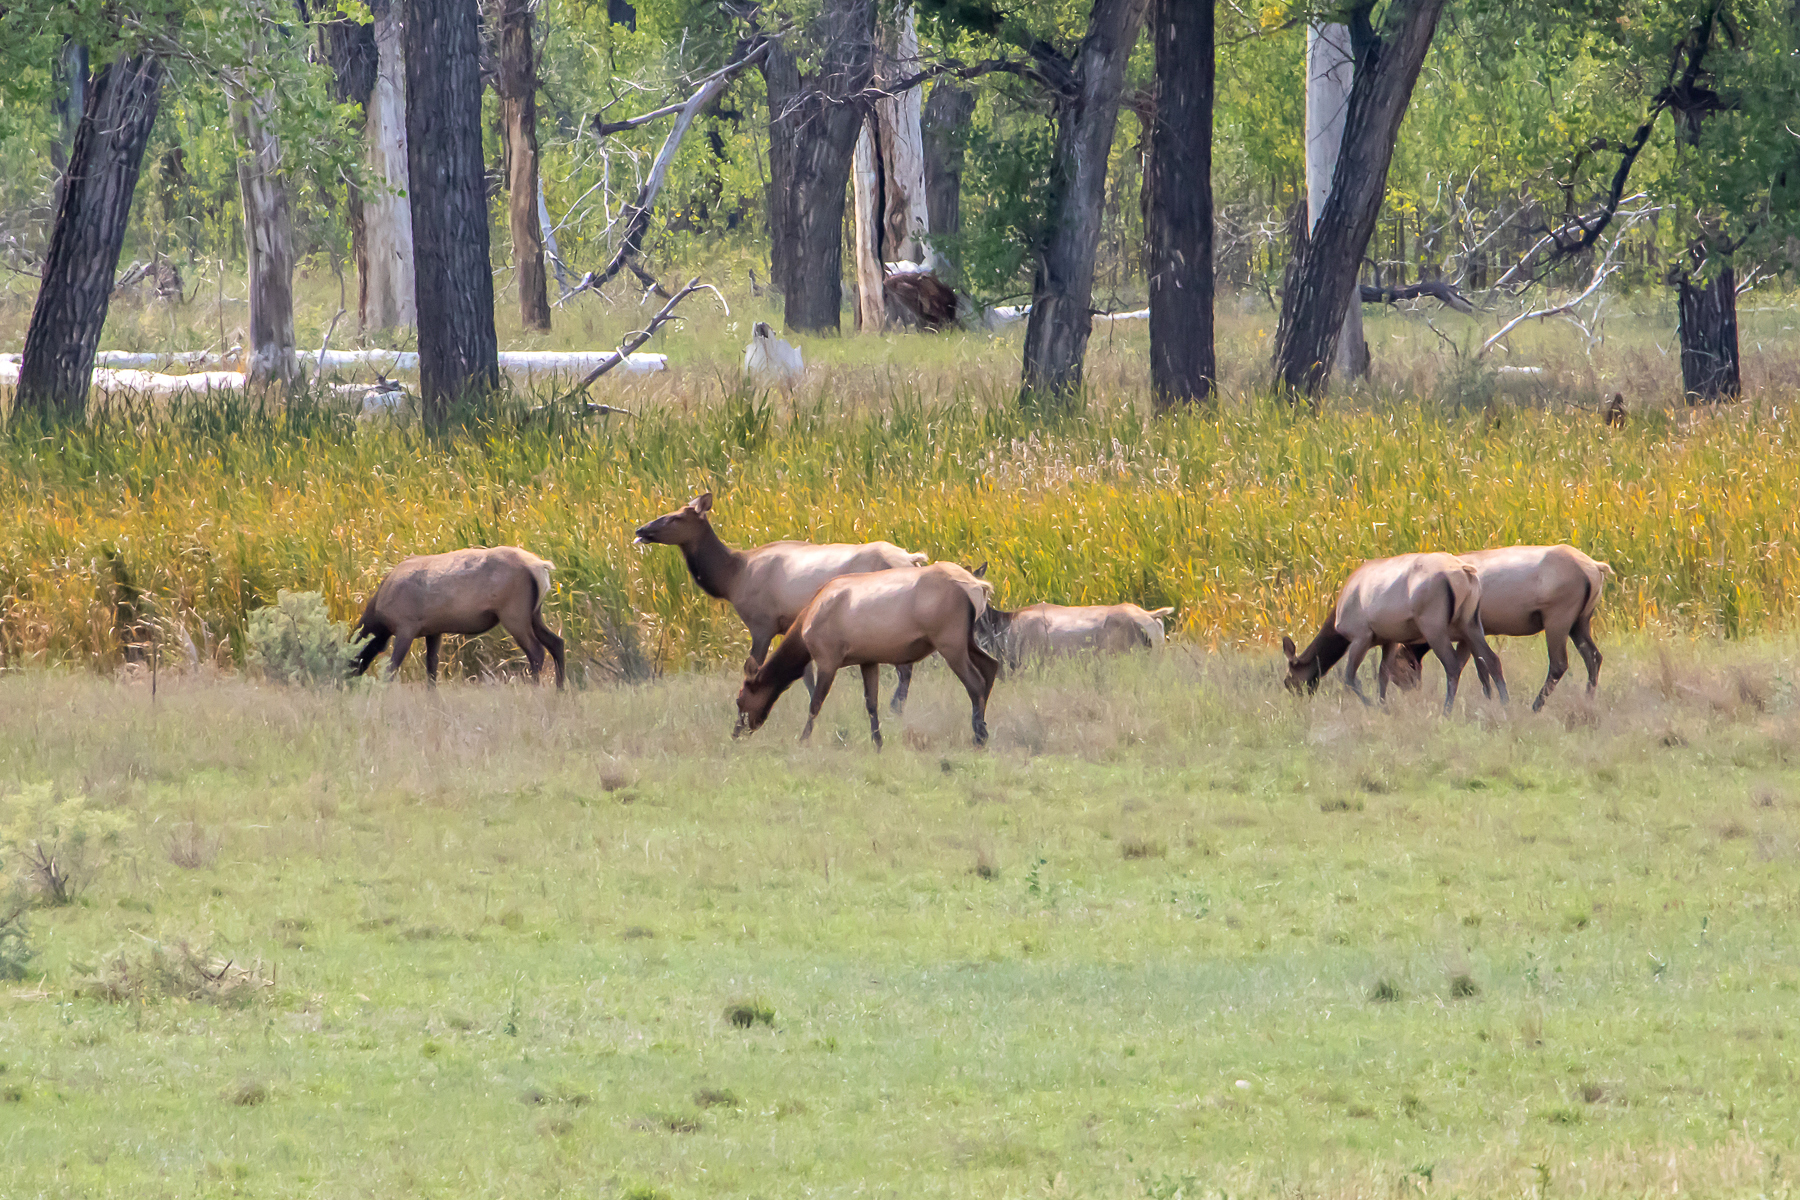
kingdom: Animalia
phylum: Chordata
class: Mammalia
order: Artiodactyla
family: Cervidae
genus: Cervus
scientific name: Cervus elaphus
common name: Red deer
